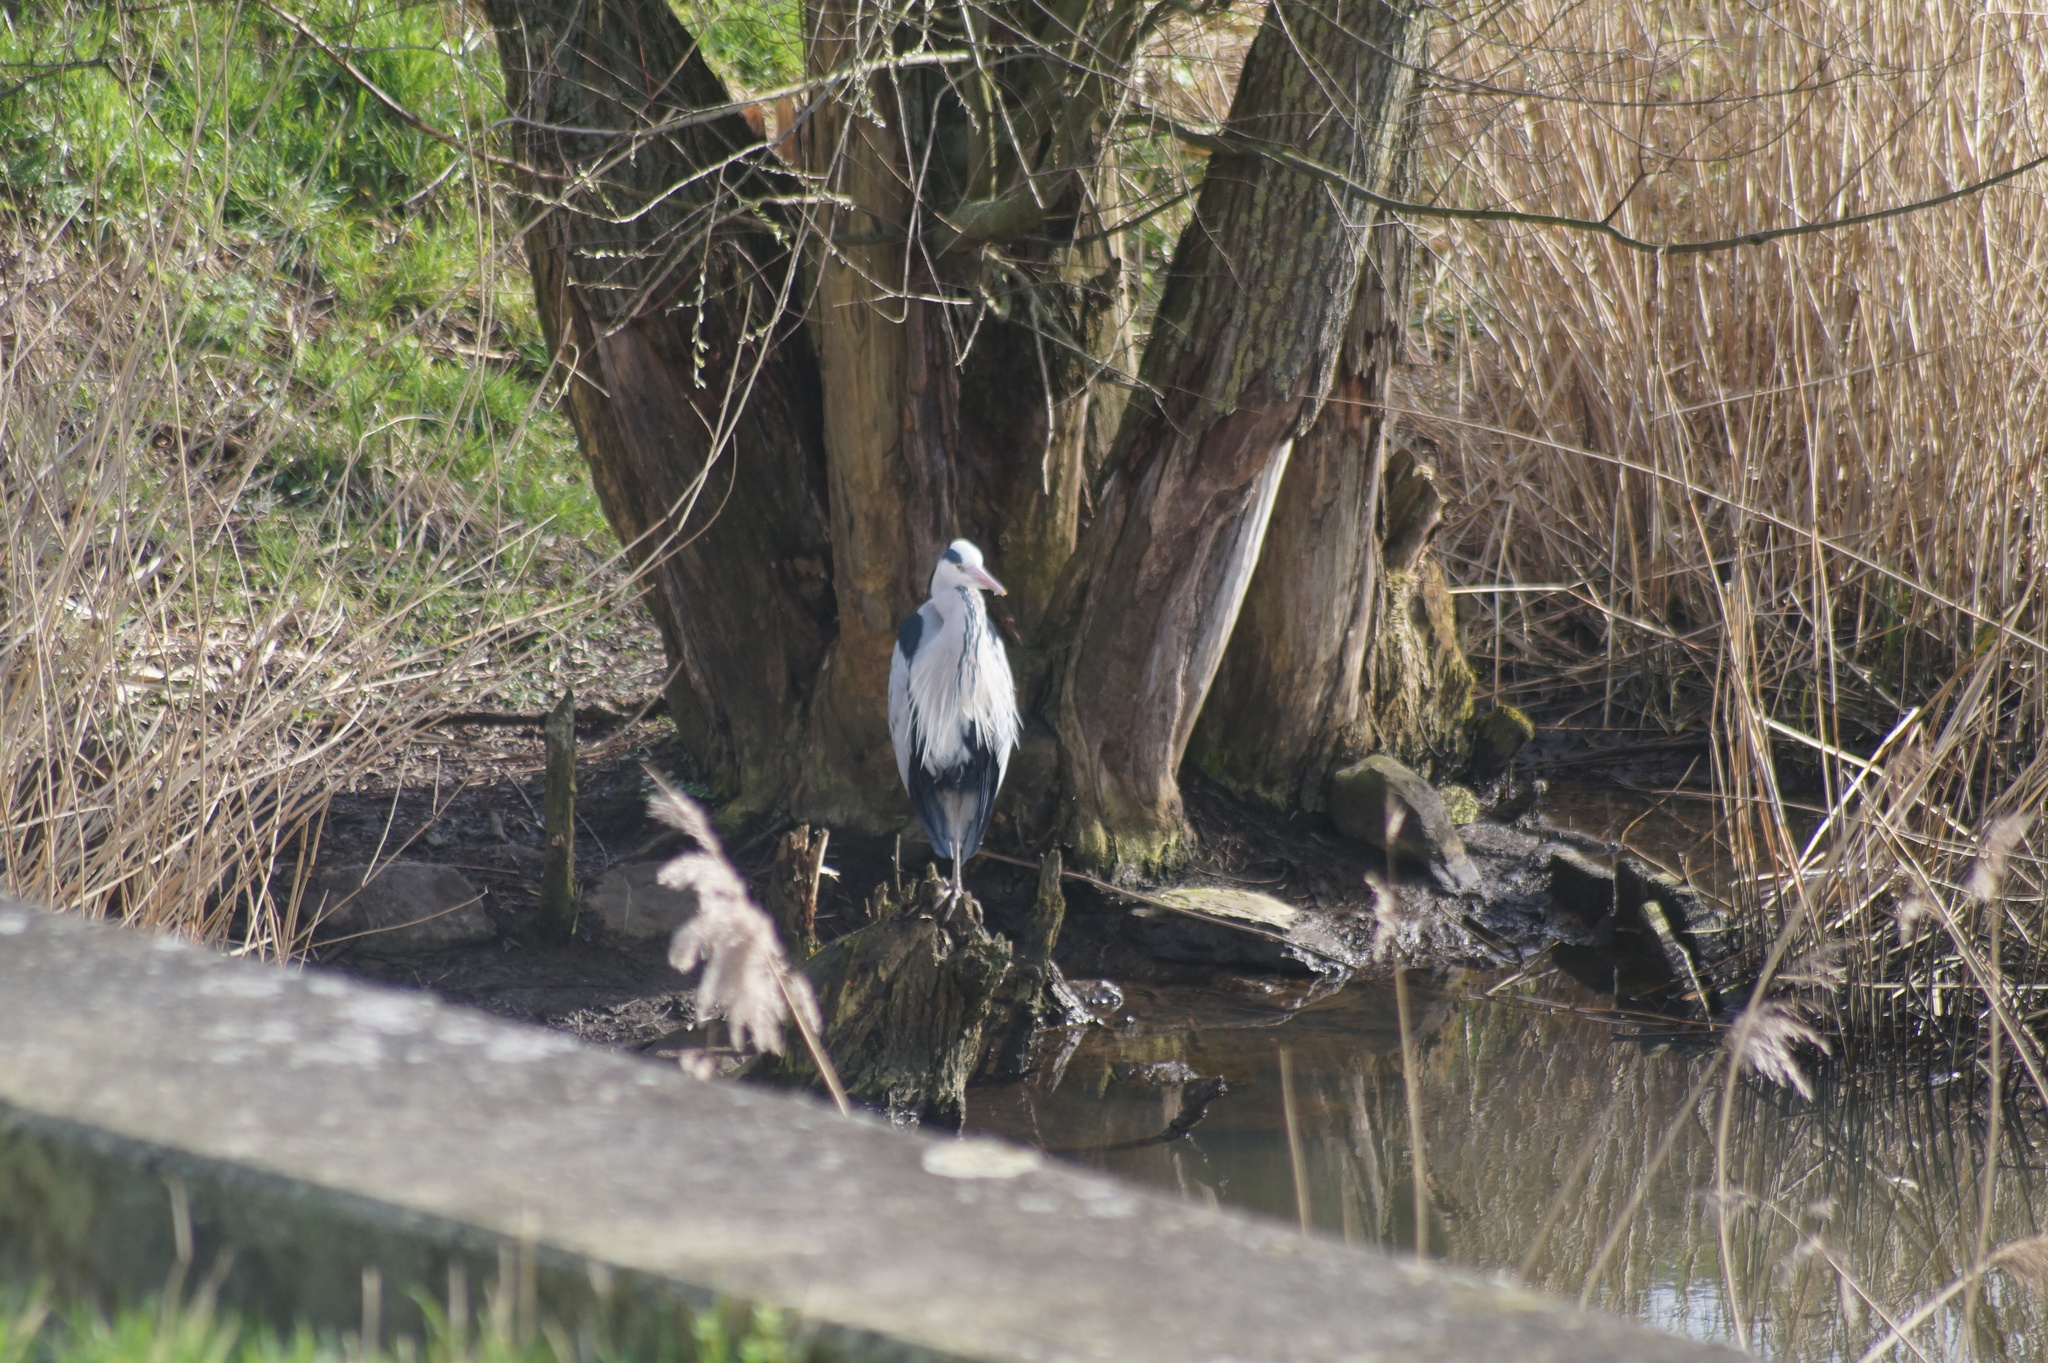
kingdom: Animalia
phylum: Chordata
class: Aves
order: Pelecaniformes
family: Ardeidae
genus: Ardea
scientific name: Ardea cinerea
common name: Grey heron
